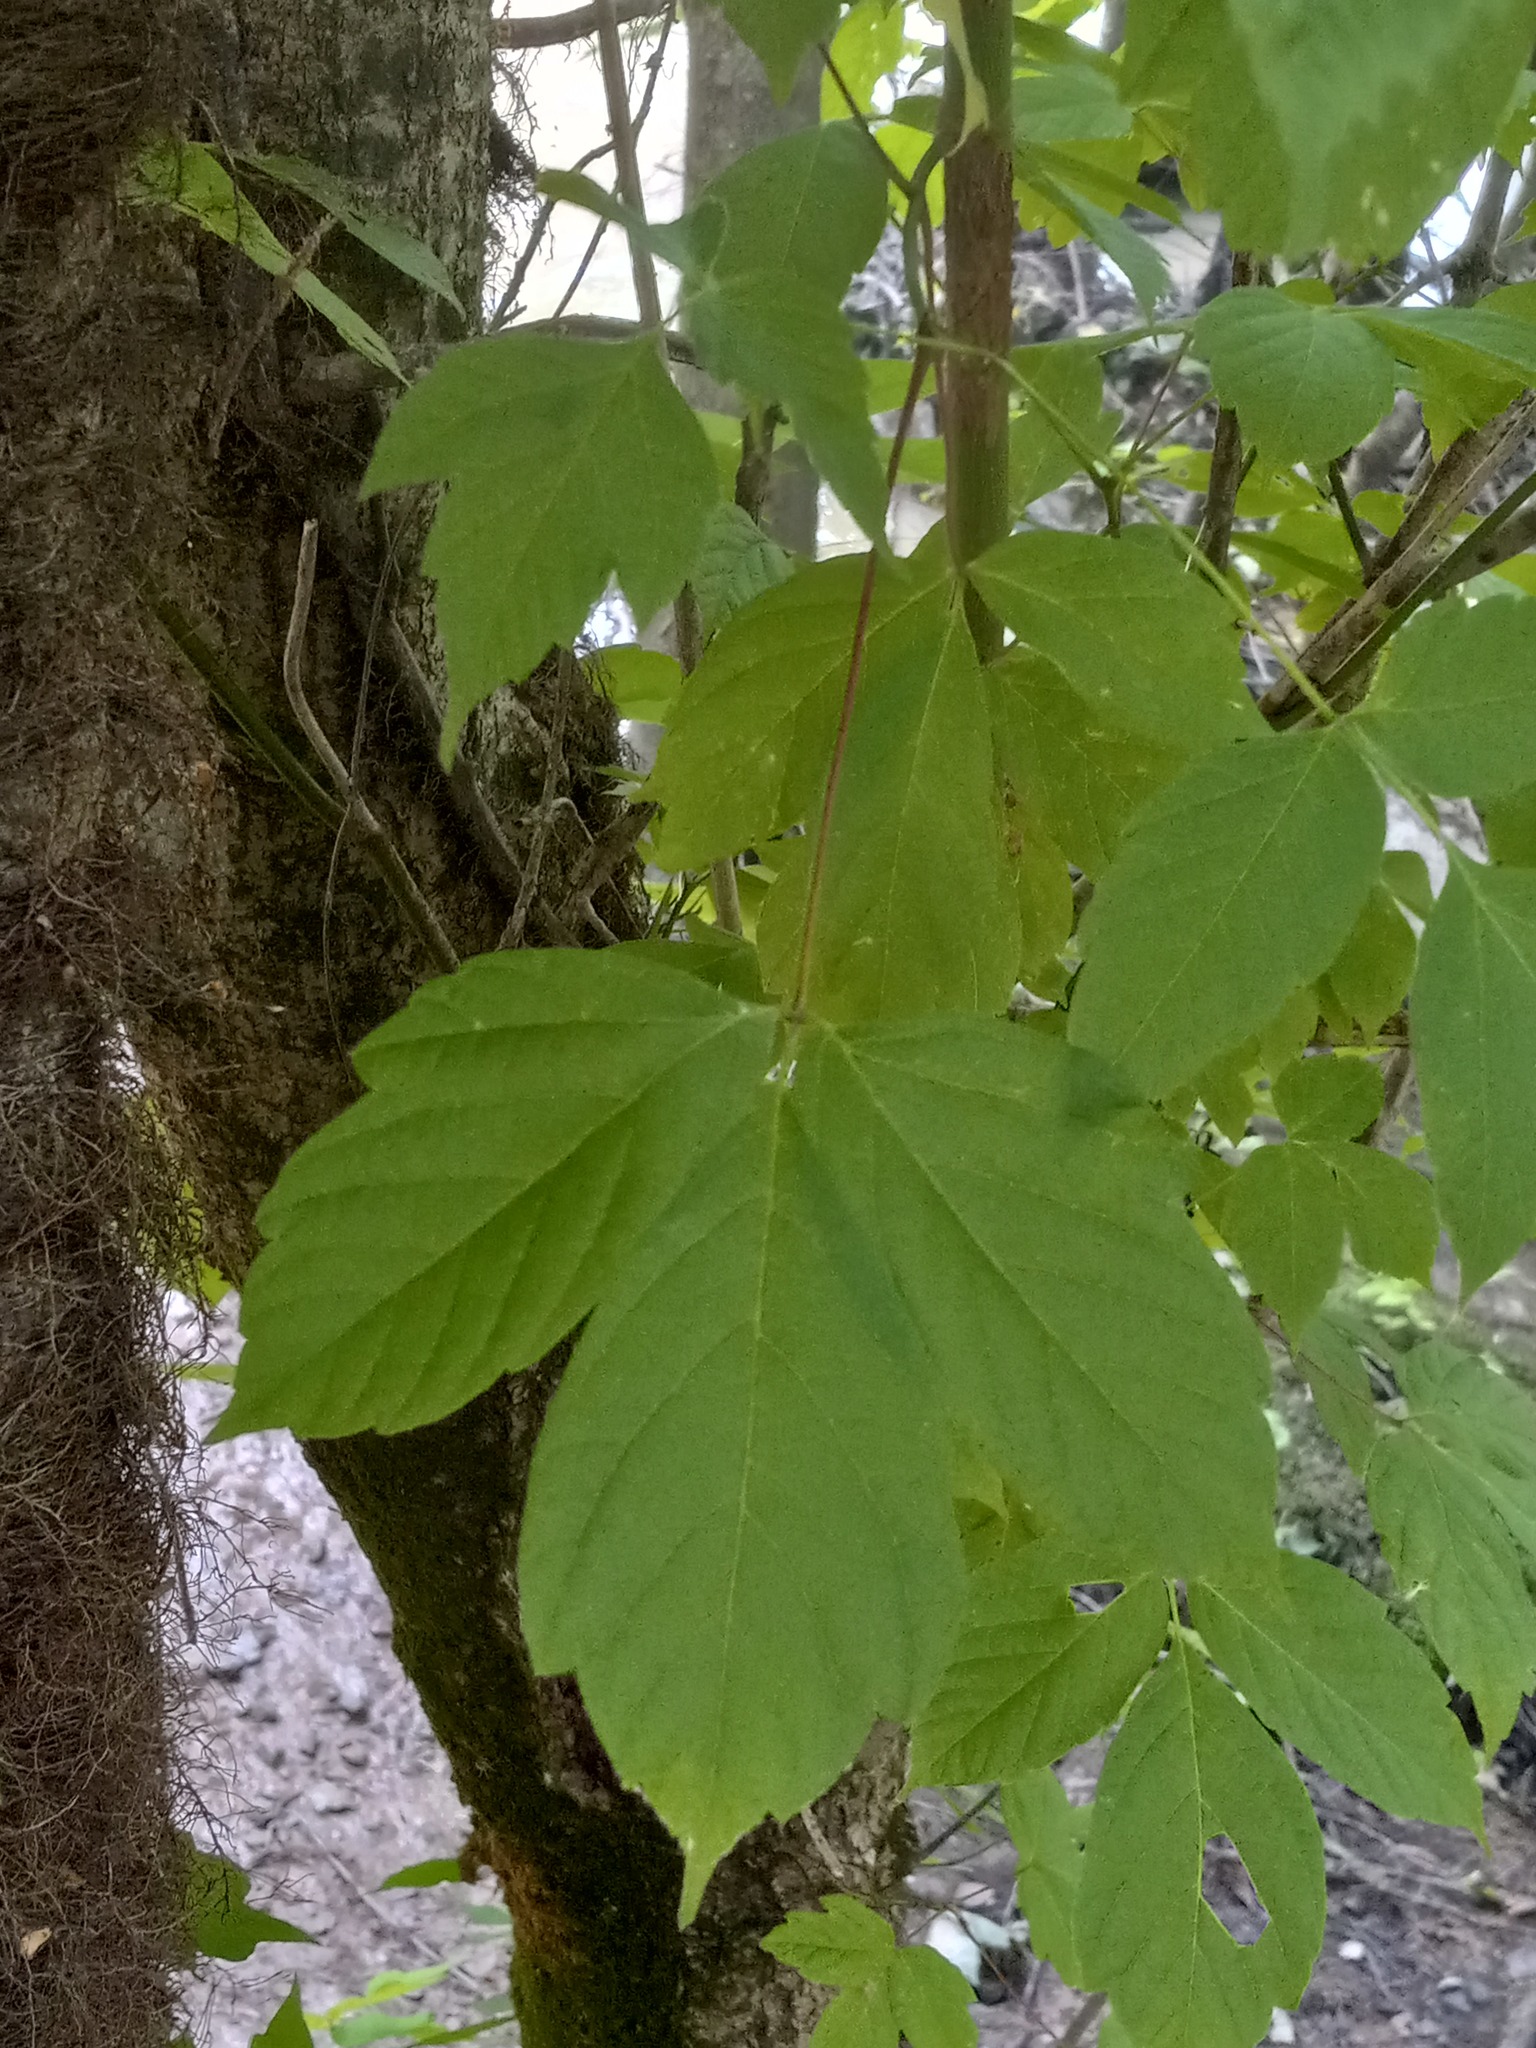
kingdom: Plantae
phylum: Tracheophyta
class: Magnoliopsida
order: Sapindales
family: Sapindaceae
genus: Acer
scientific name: Acer negundo
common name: Ashleaf maple
